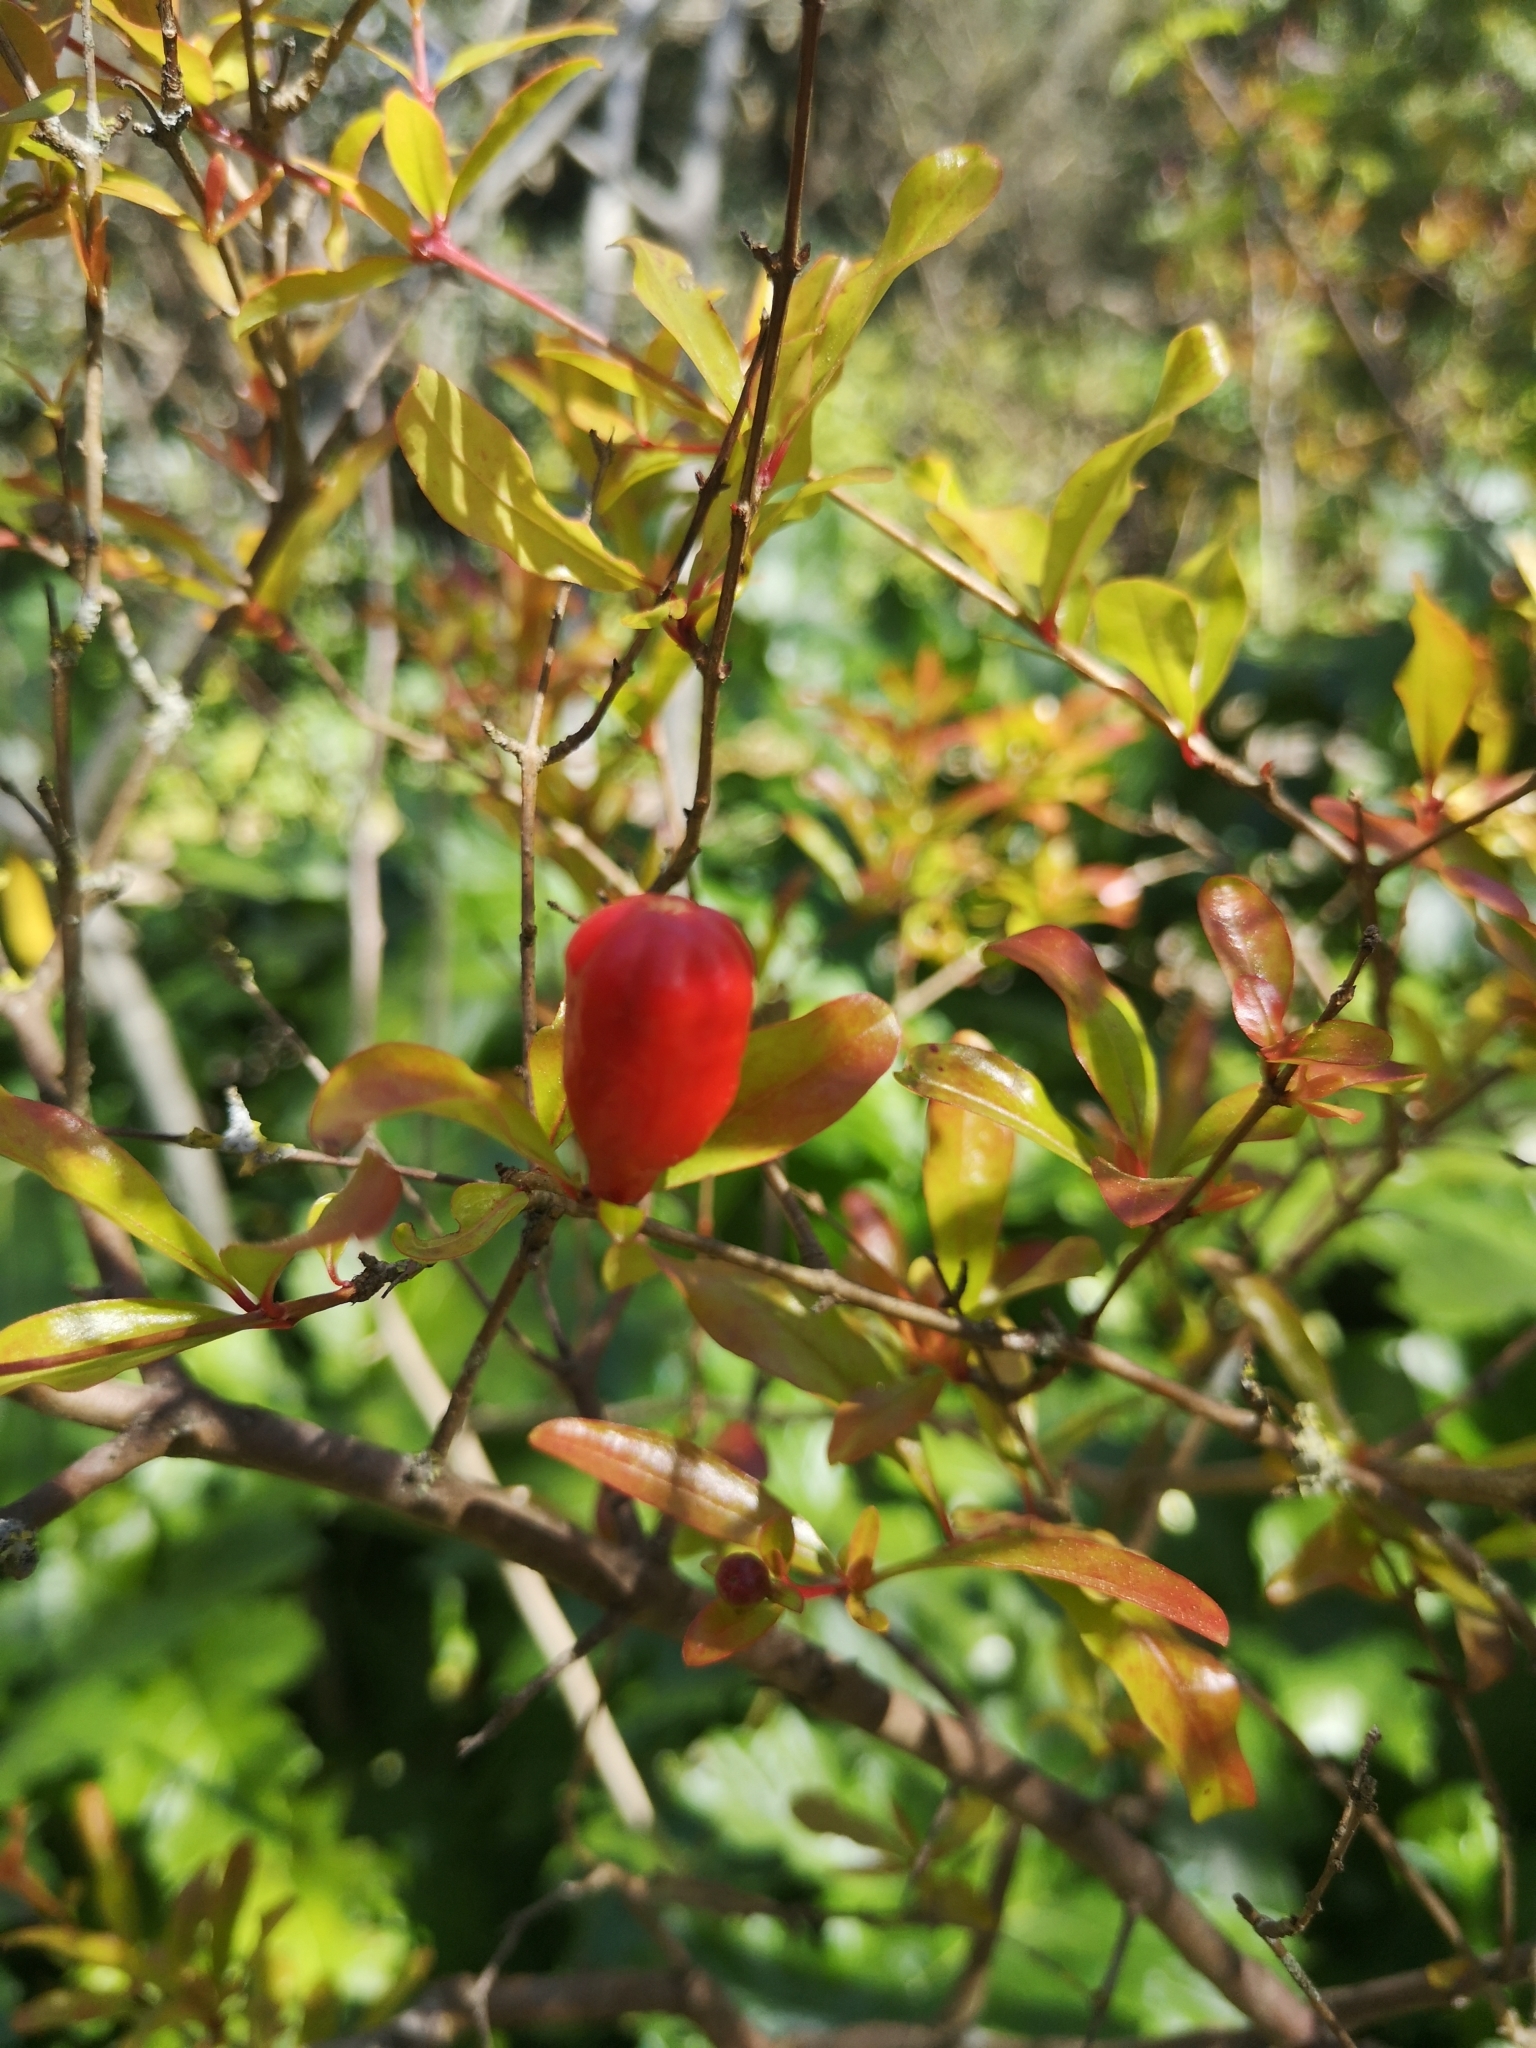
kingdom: Plantae
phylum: Tracheophyta
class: Magnoliopsida
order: Myrtales
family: Lythraceae
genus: Punica
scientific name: Punica granatum
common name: Pomegranate
